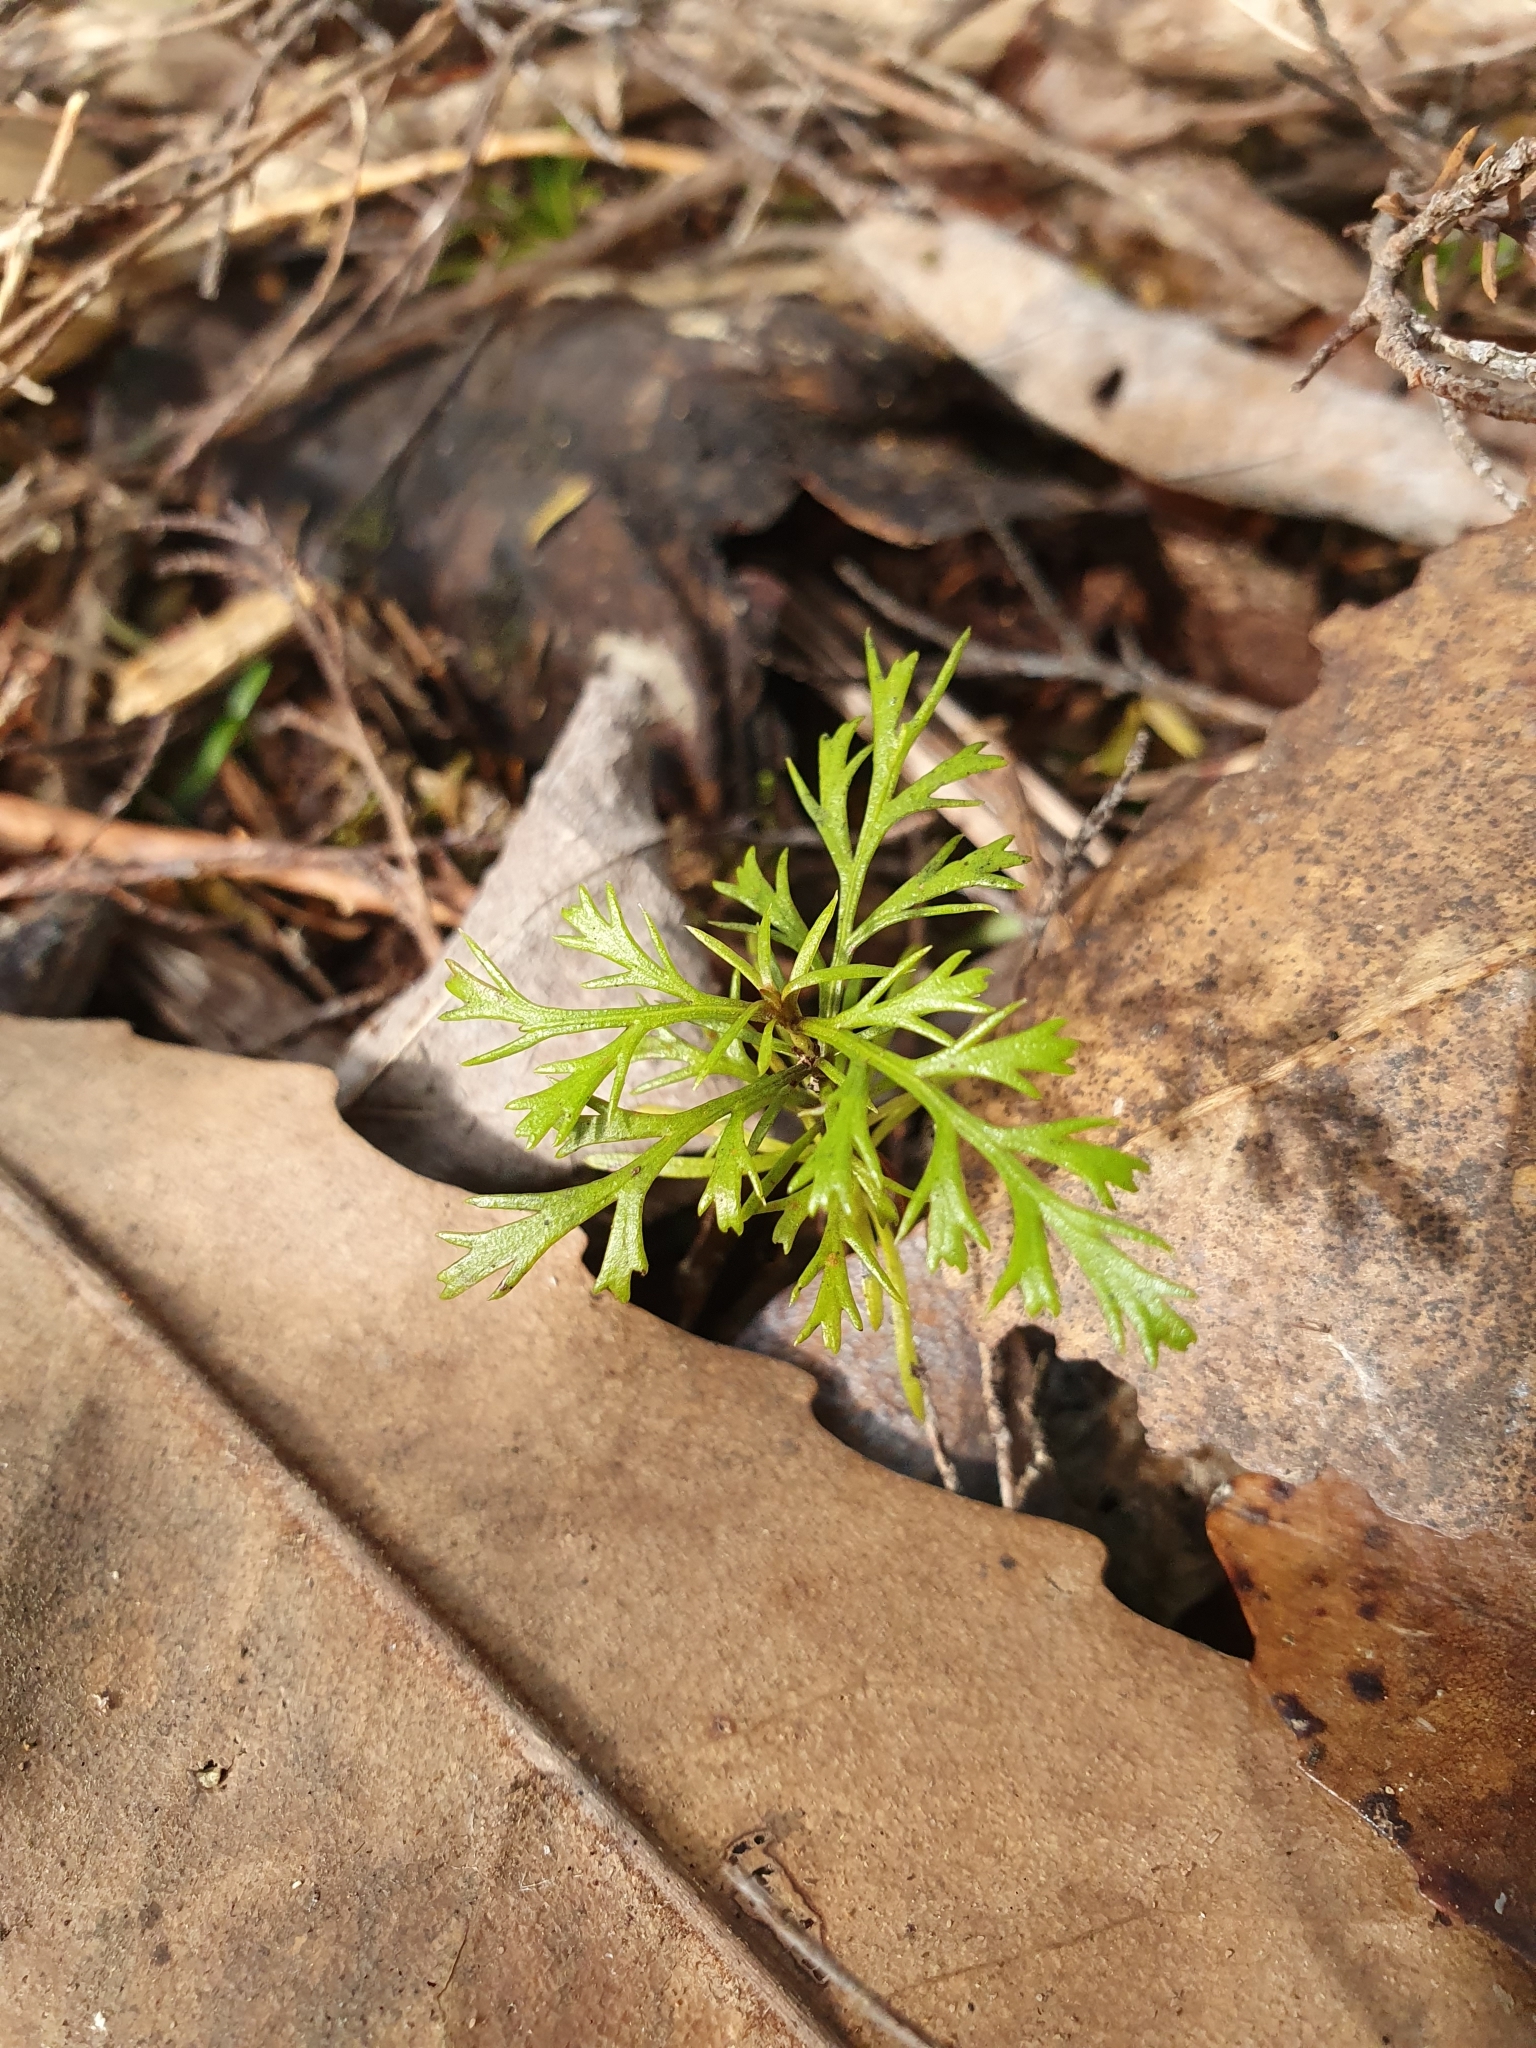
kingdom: Plantae
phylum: Tracheophyta
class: Pinopsida
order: Pinales
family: Phyllocladaceae
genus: Phyllocladus
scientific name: Phyllocladus trichomanoides
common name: Celery pine
